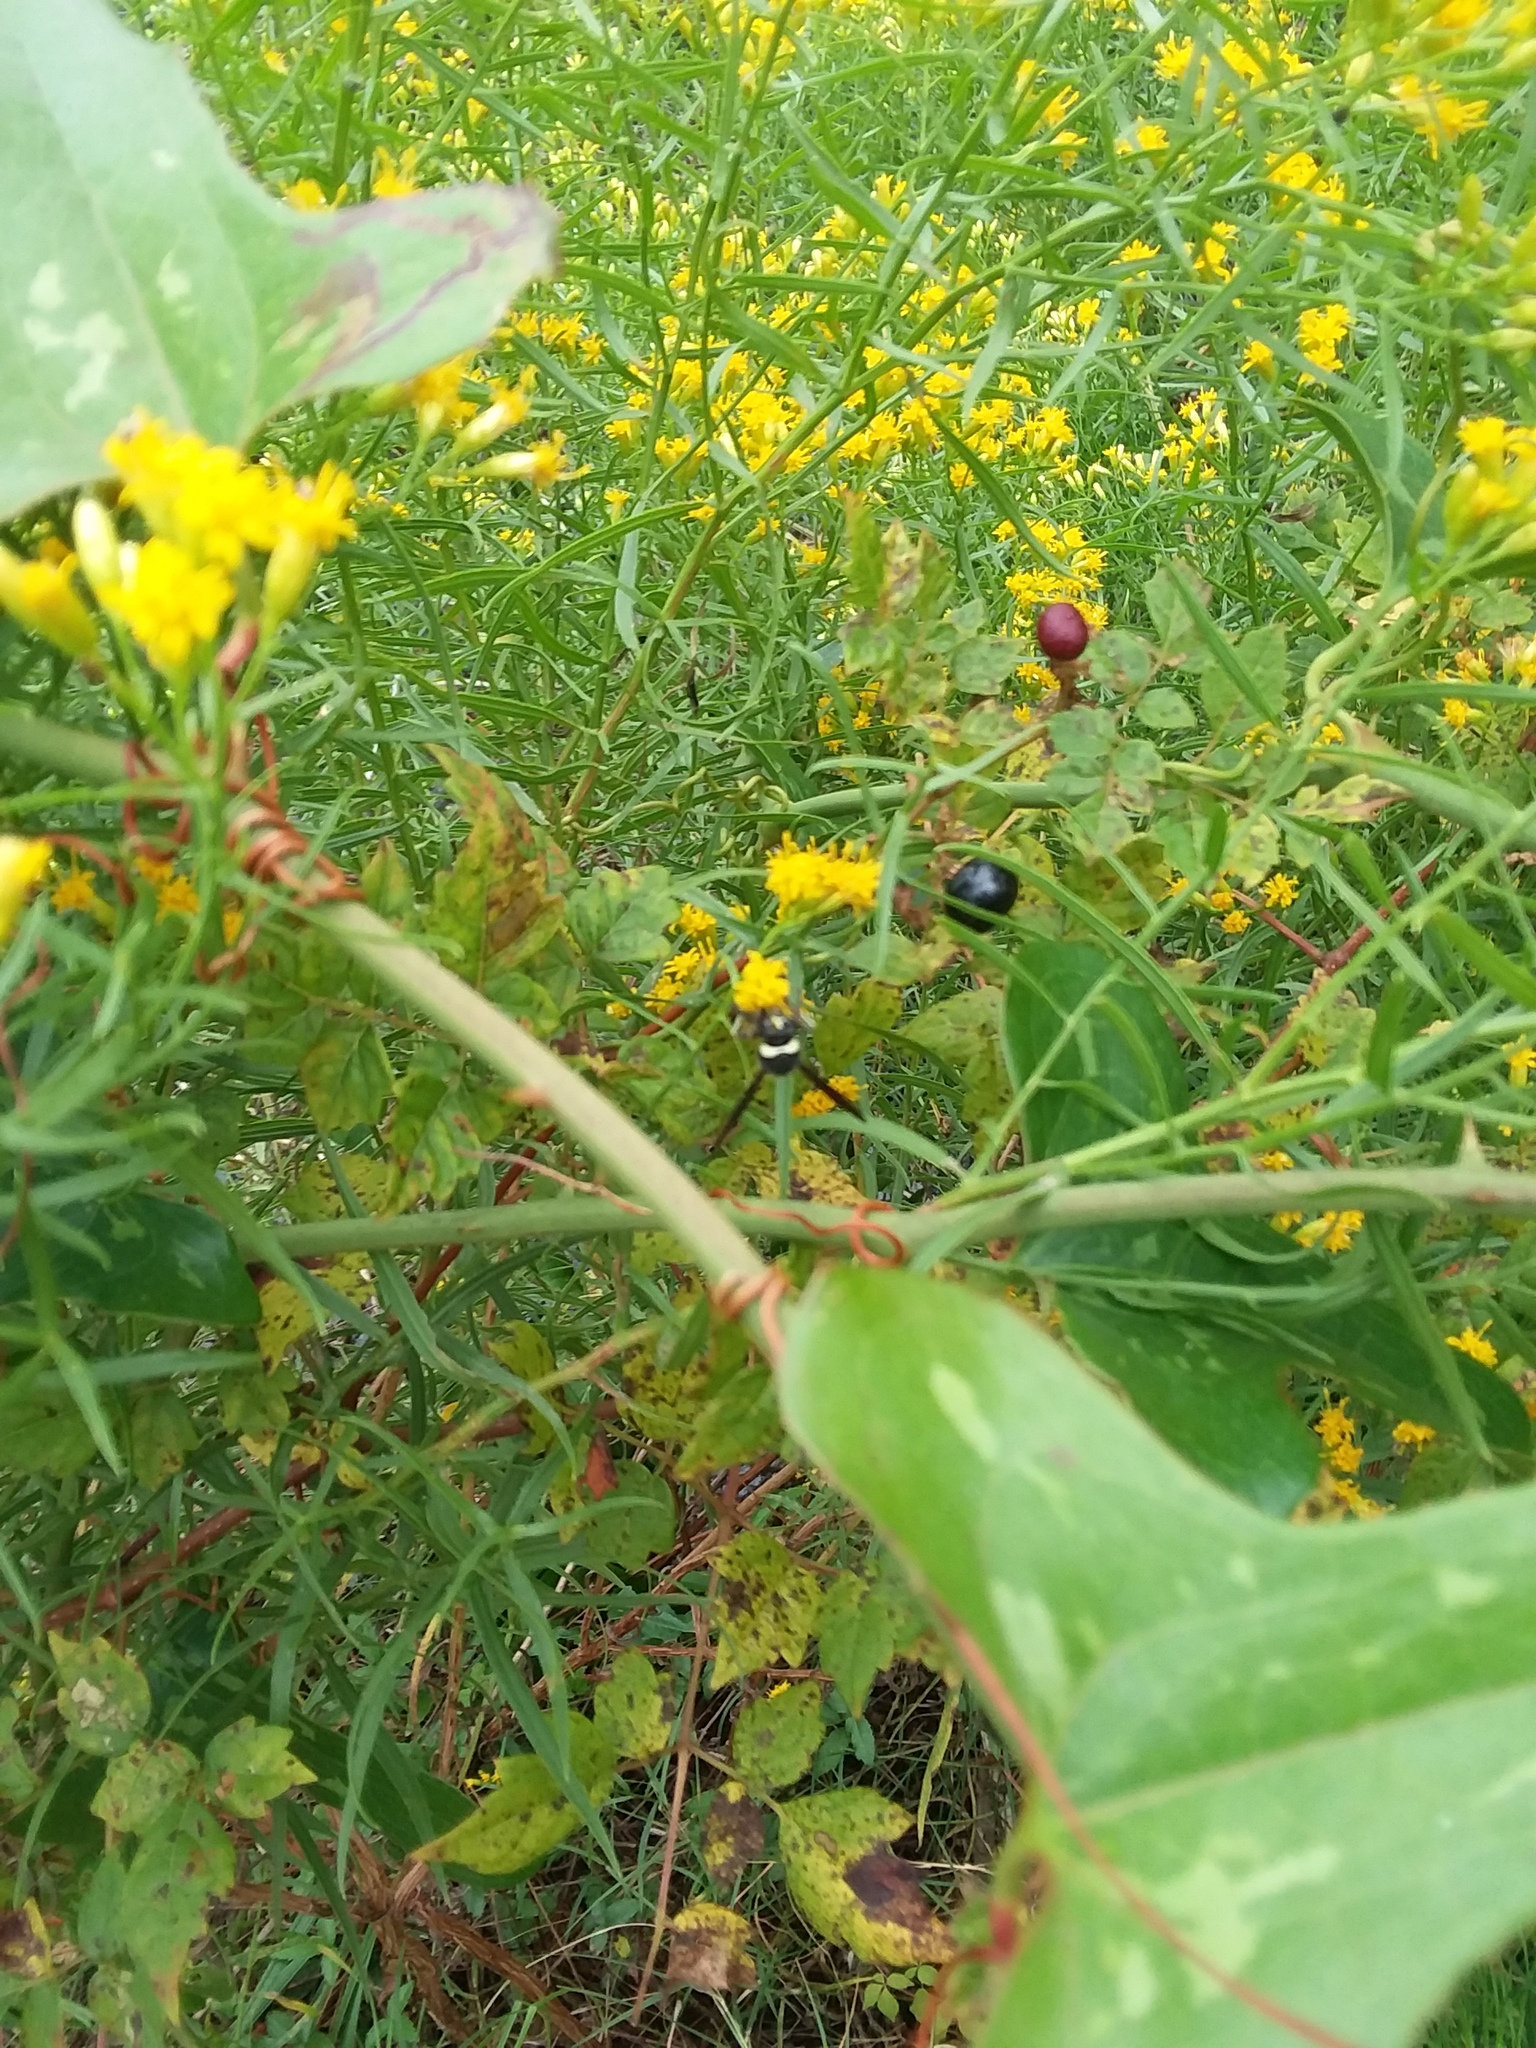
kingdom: Animalia
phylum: Arthropoda
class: Insecta
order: Hymenoptera
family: Vespidae
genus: Eumenes
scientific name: Eumenes fraternus
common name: Fraternal potter wasp
